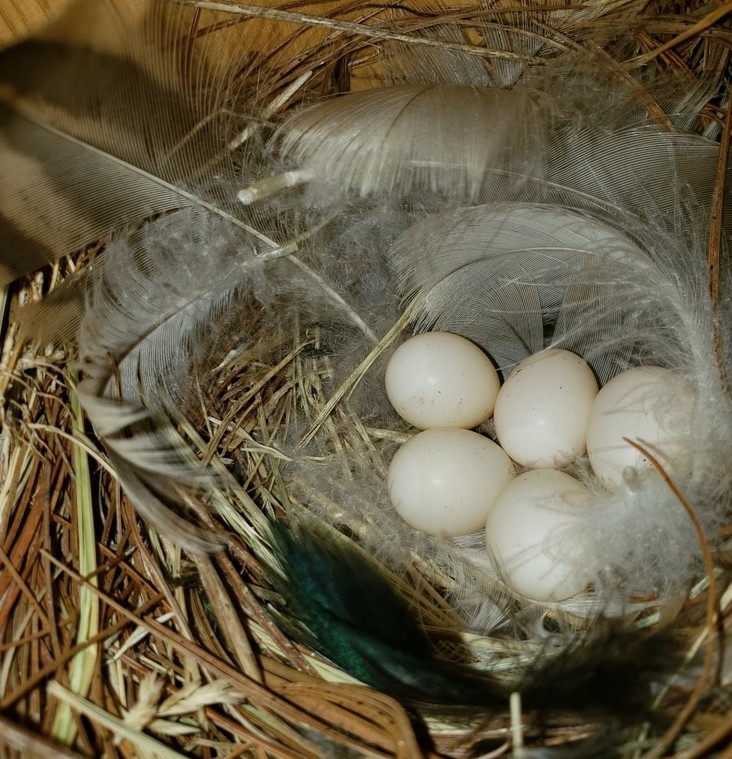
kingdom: Animalia
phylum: Chordata
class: Aves
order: Passeriformes
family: Hirundinidae
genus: Tachycineta
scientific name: Tachycineta bicolor
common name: Tree swallow
